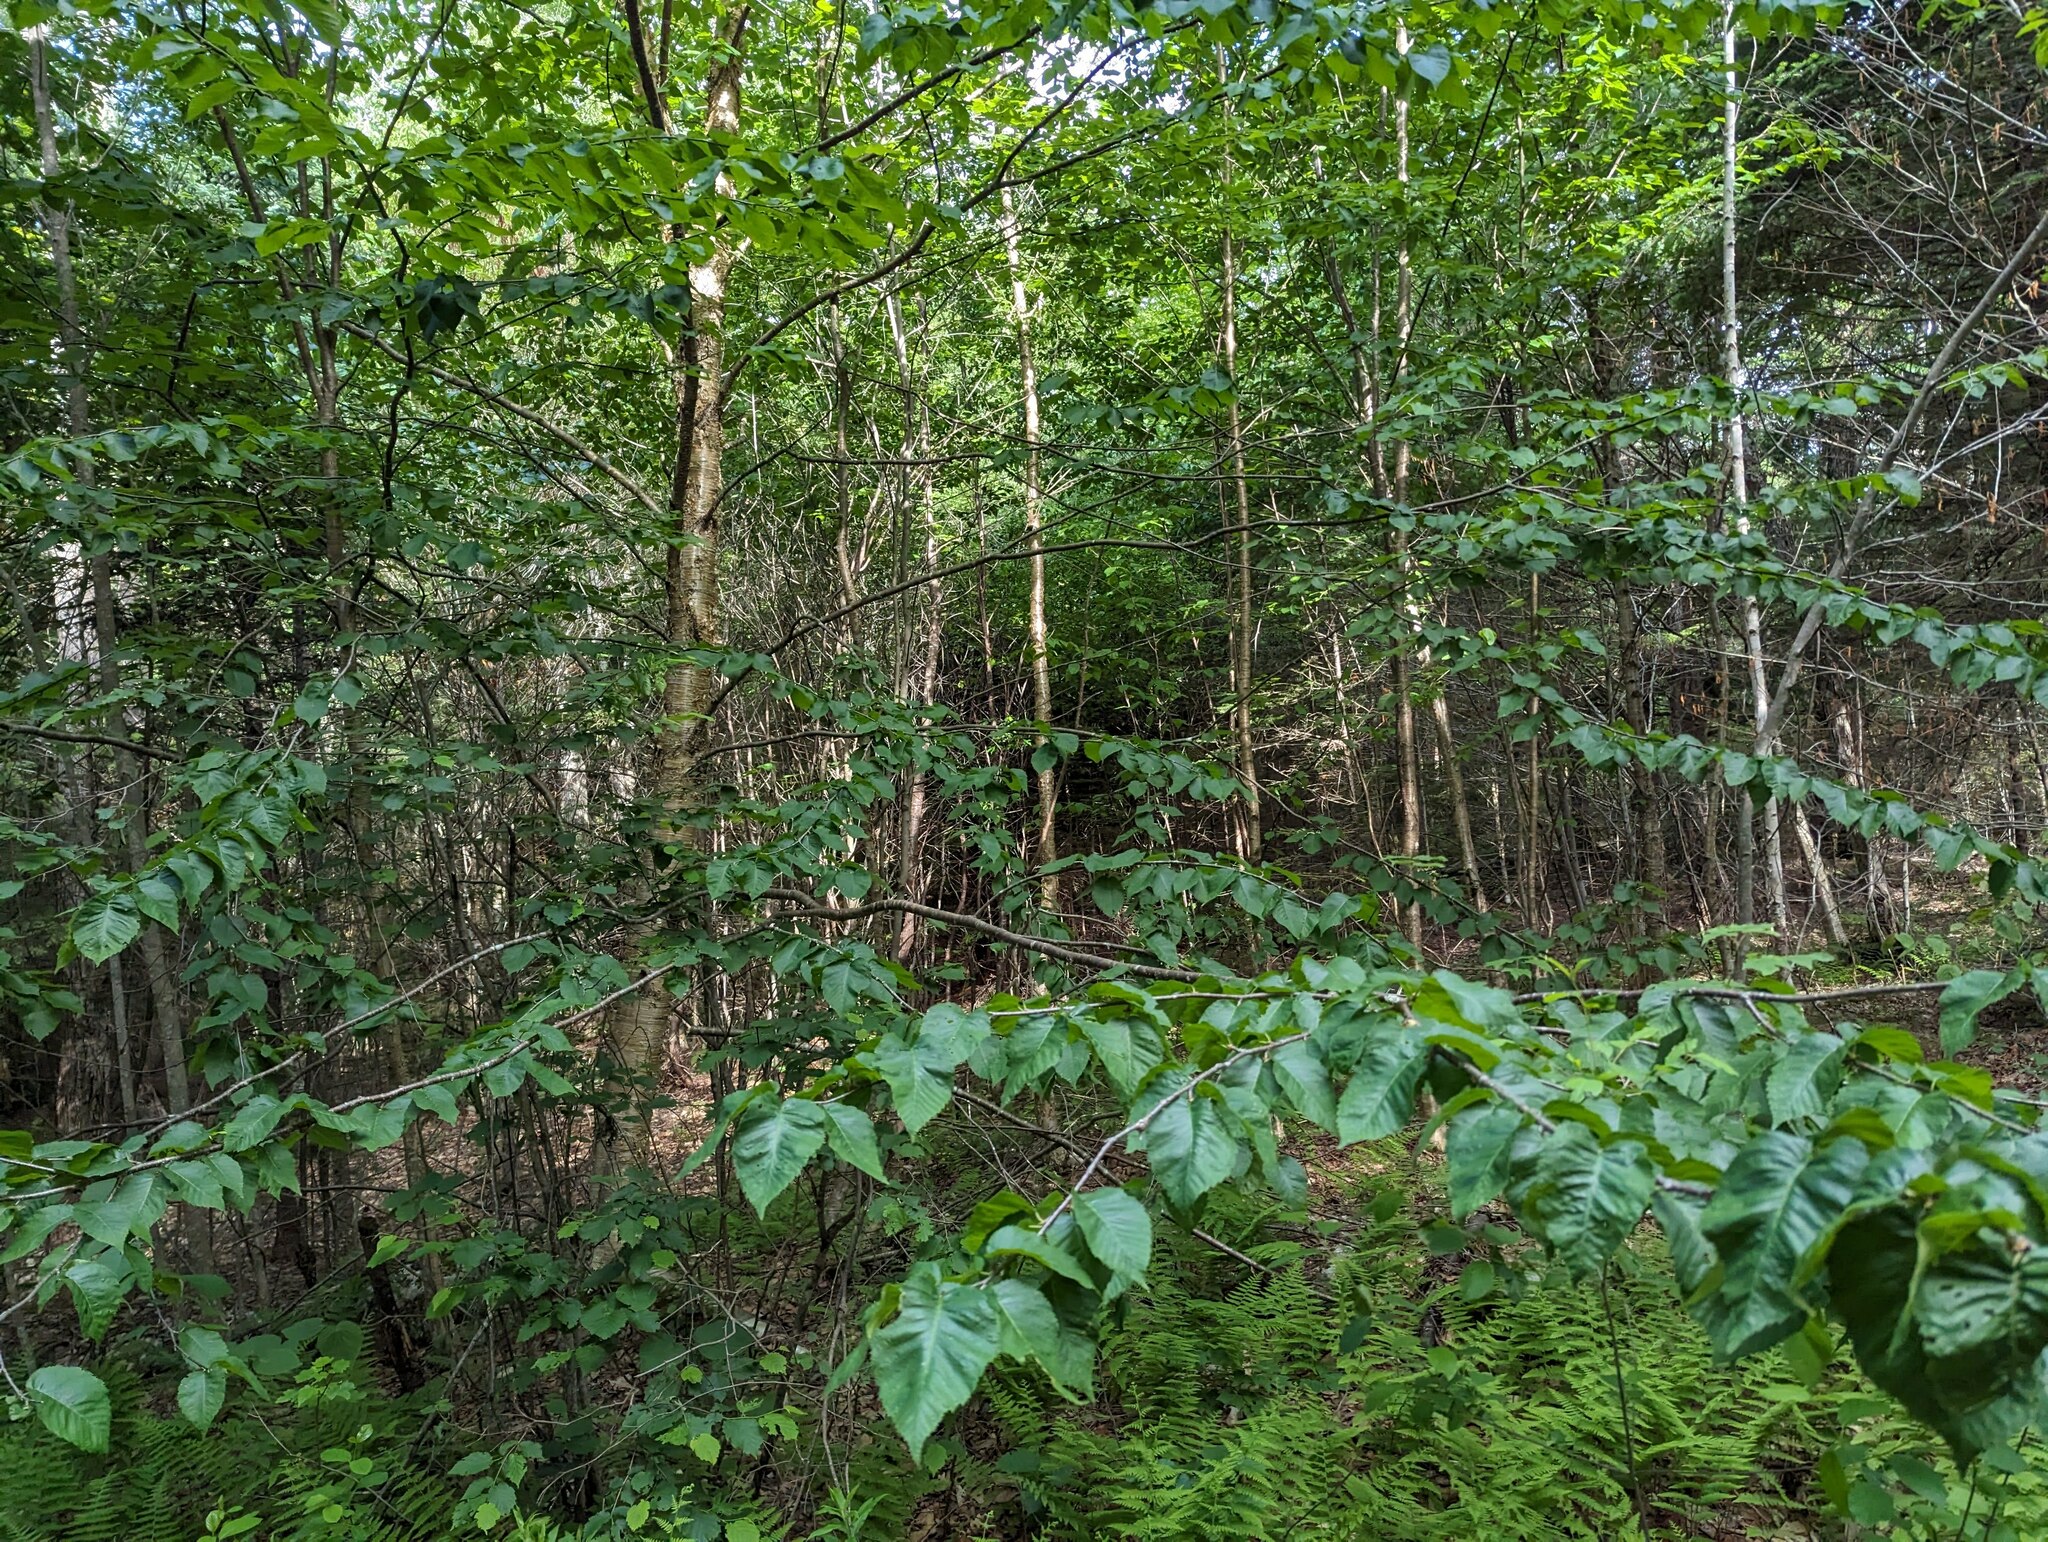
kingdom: Plantae
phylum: Tracheophyta
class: Magnoliopsida
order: Fagales
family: Betulaceae
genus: Betula
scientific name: Betula alleghaniensis
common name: Yellow birch
